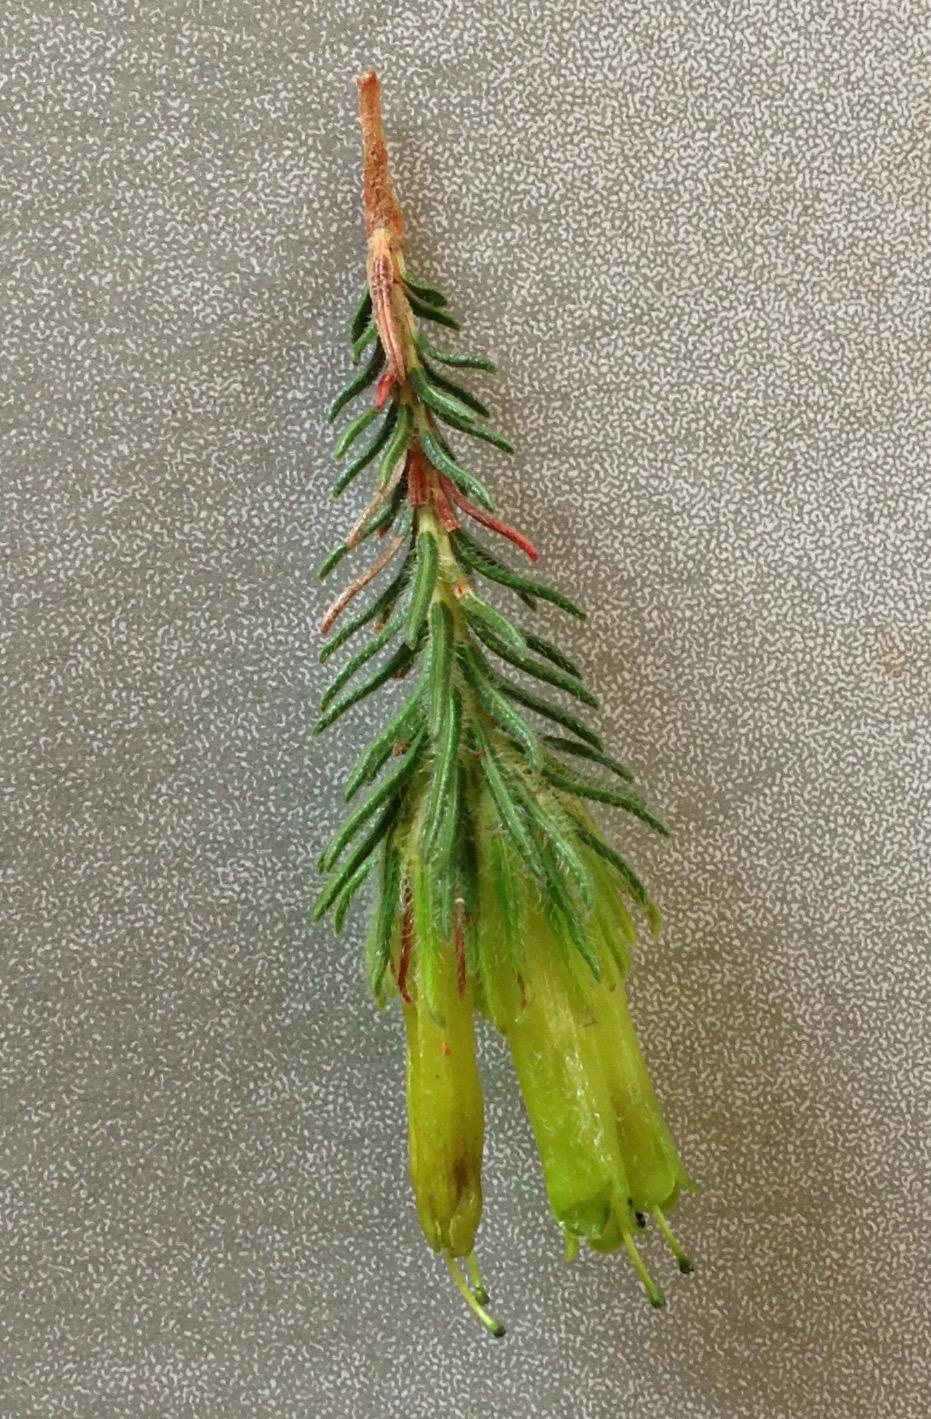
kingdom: Plantae
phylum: Tracheophyta
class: Magnoliopsida
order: Ericales
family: Ericaceae
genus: Erica
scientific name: Erica unicolor
